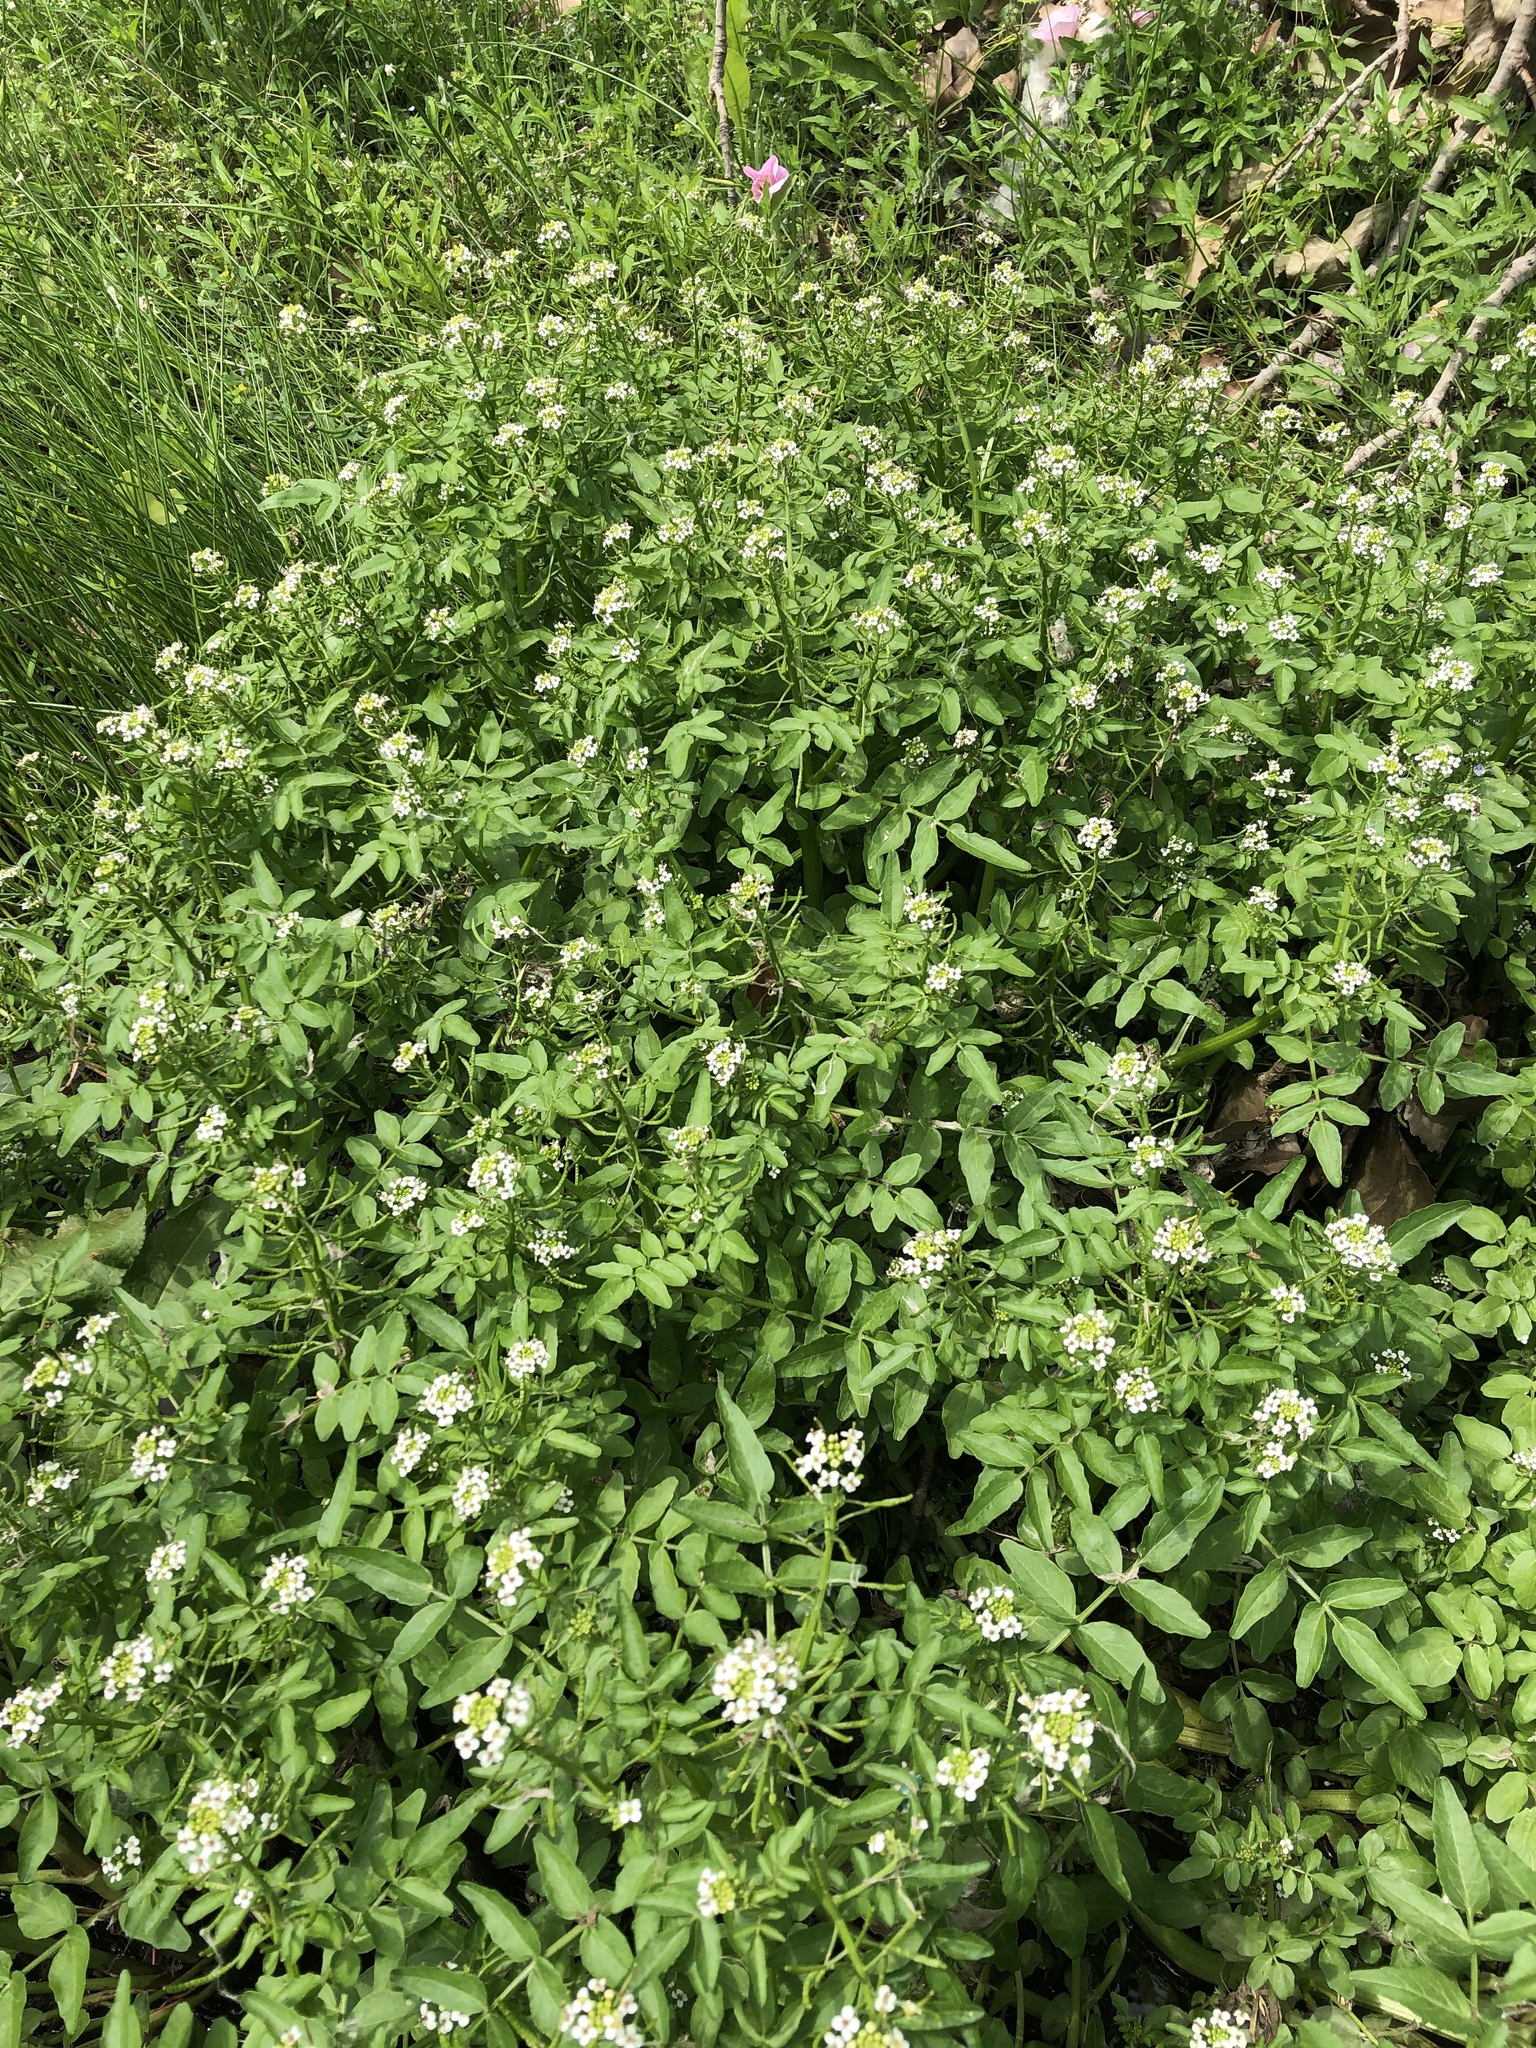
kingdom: Plantae
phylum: Tracheophyta
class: Magnoliopsida
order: Brassicales
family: Brassicaceae
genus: Nasturtium
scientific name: Nasturtium officinale
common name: Watercress
